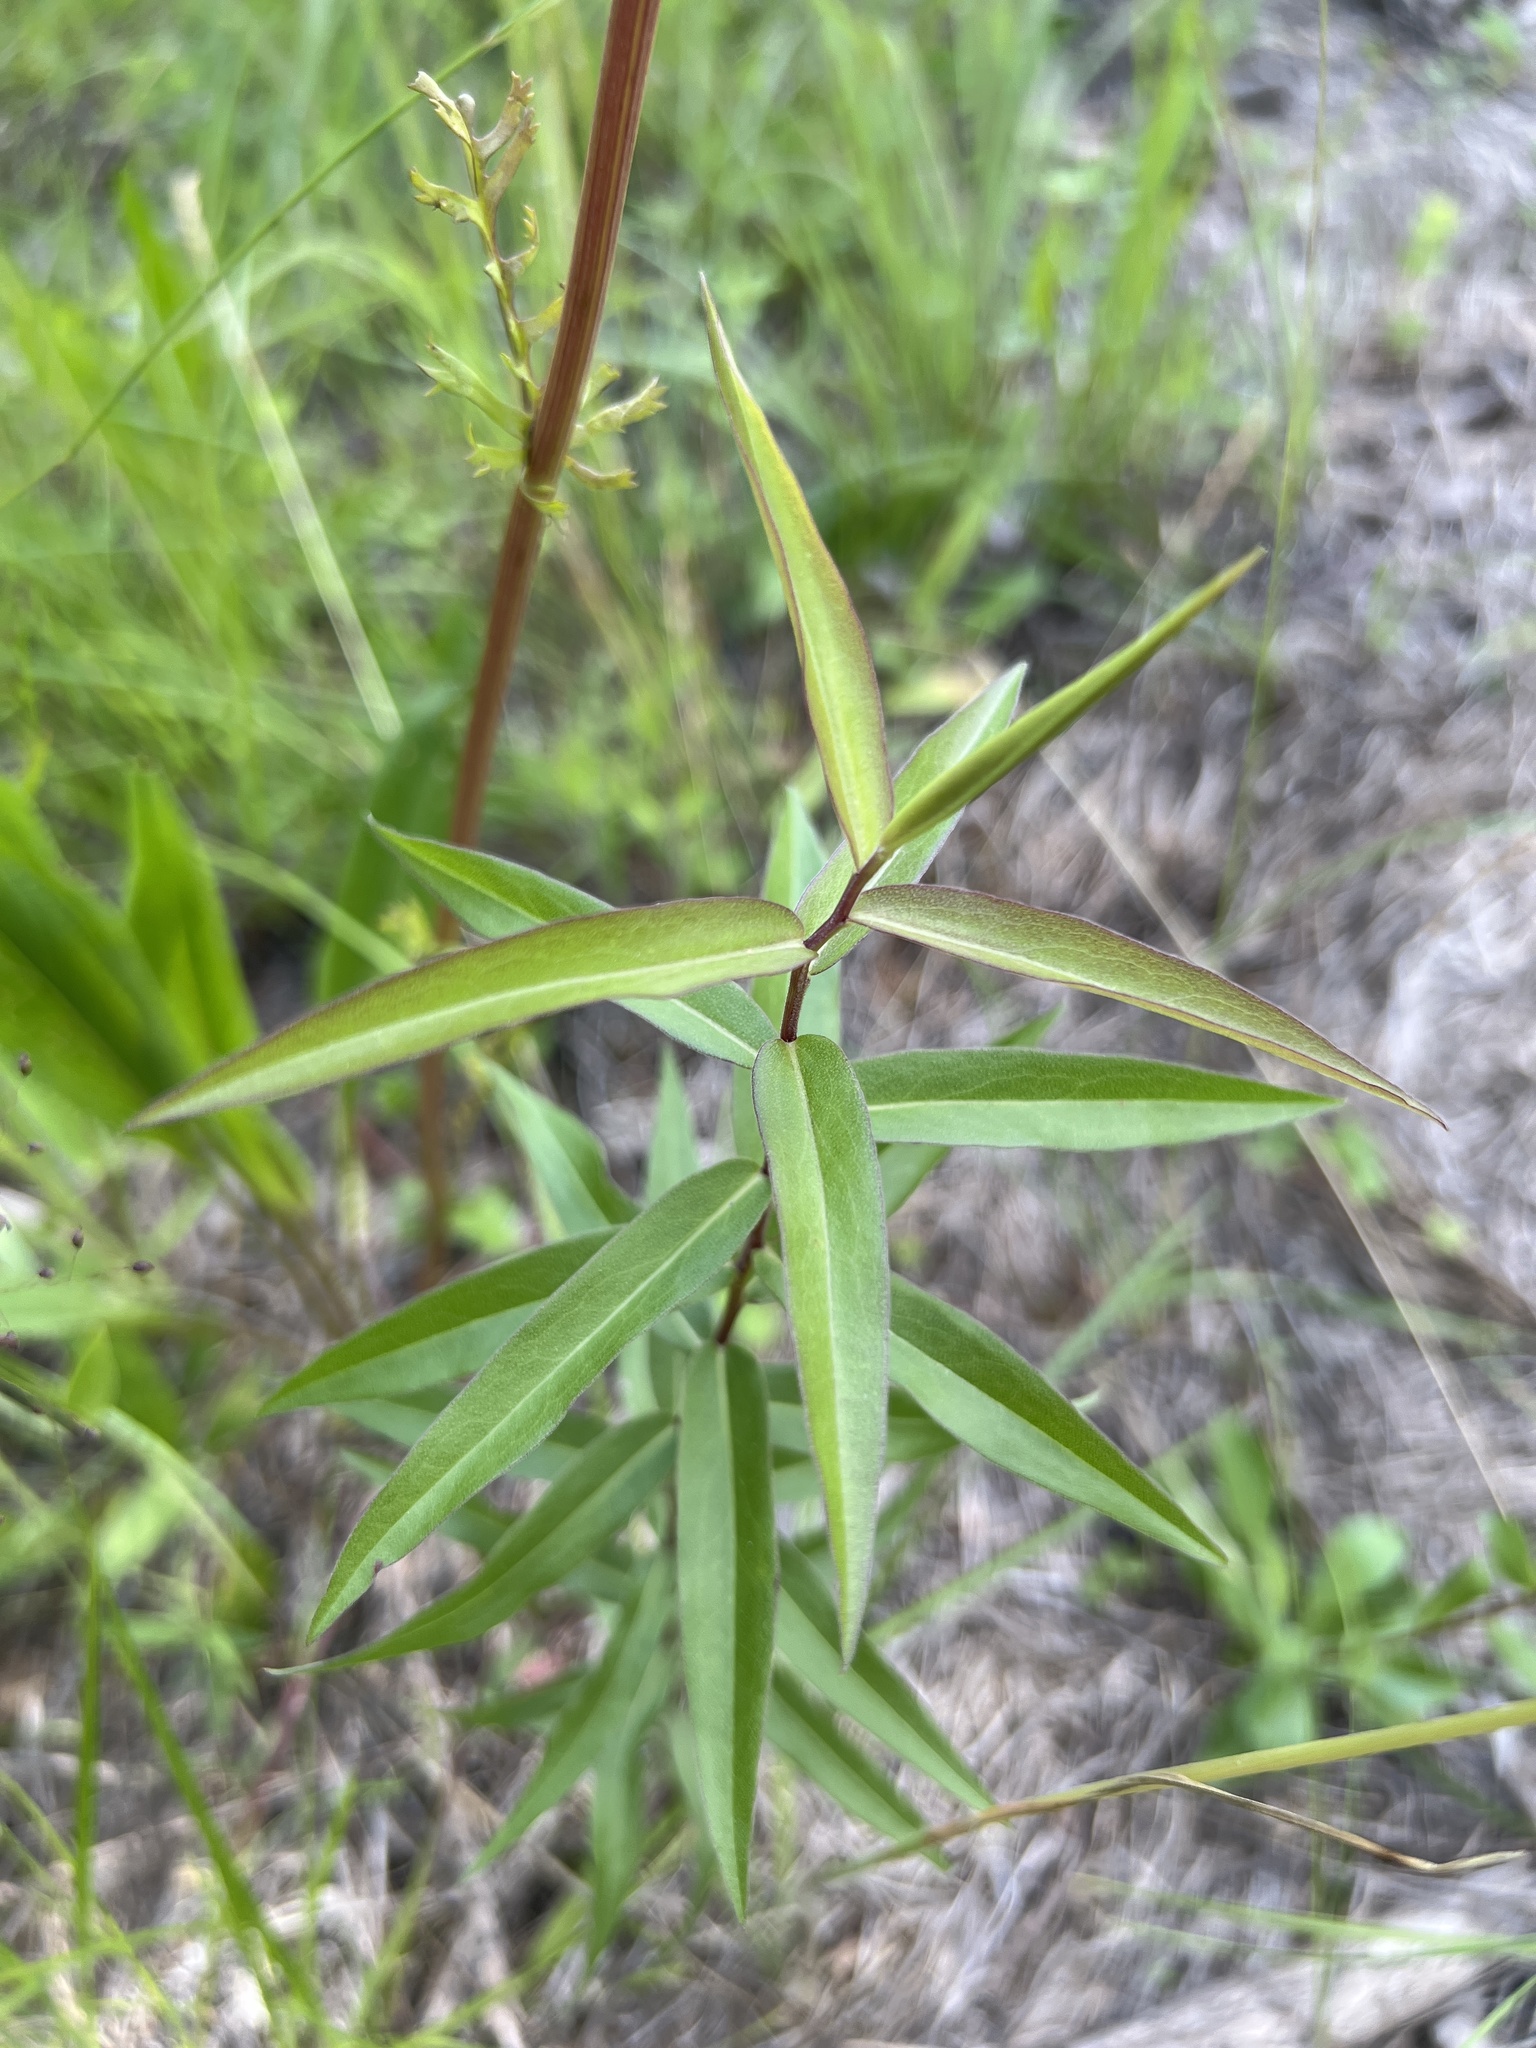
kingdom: Plantae
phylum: Tracheophyta
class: Magnoliopsida
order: Asterales
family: Asteraceae
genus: Solidago
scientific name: Solidago odora
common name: Anise-scented goldenrod
